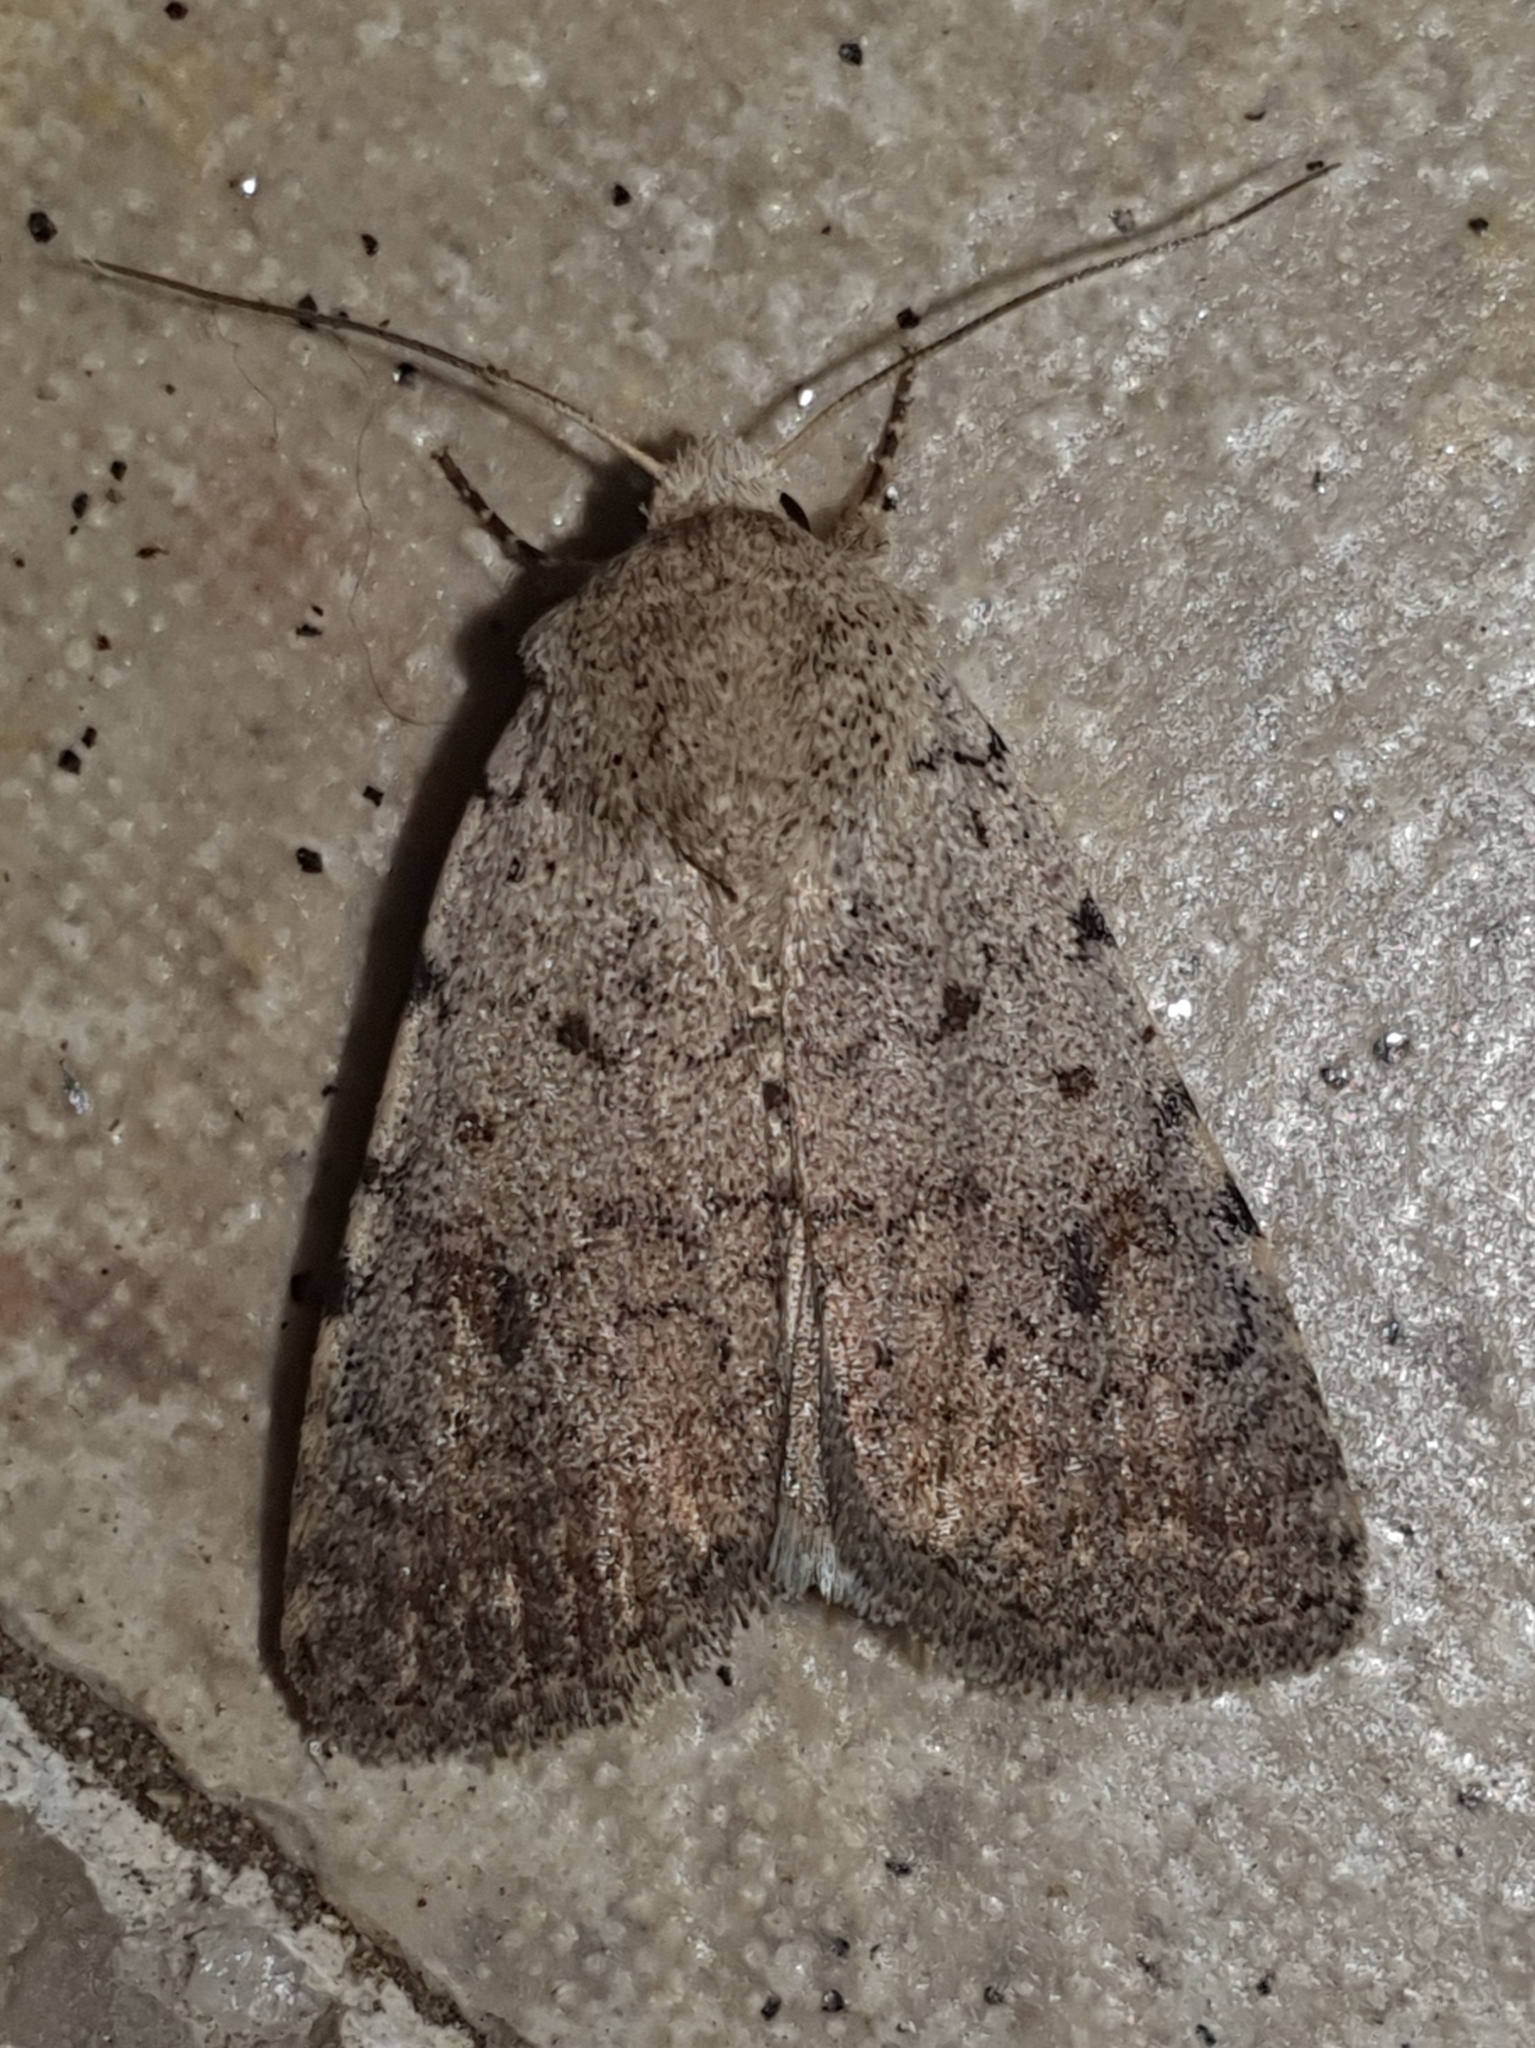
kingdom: Animalia
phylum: Arthropoda
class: Insecta
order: Lepidoptera
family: Noctuidae
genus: Caradrina
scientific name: Caradrina selini
